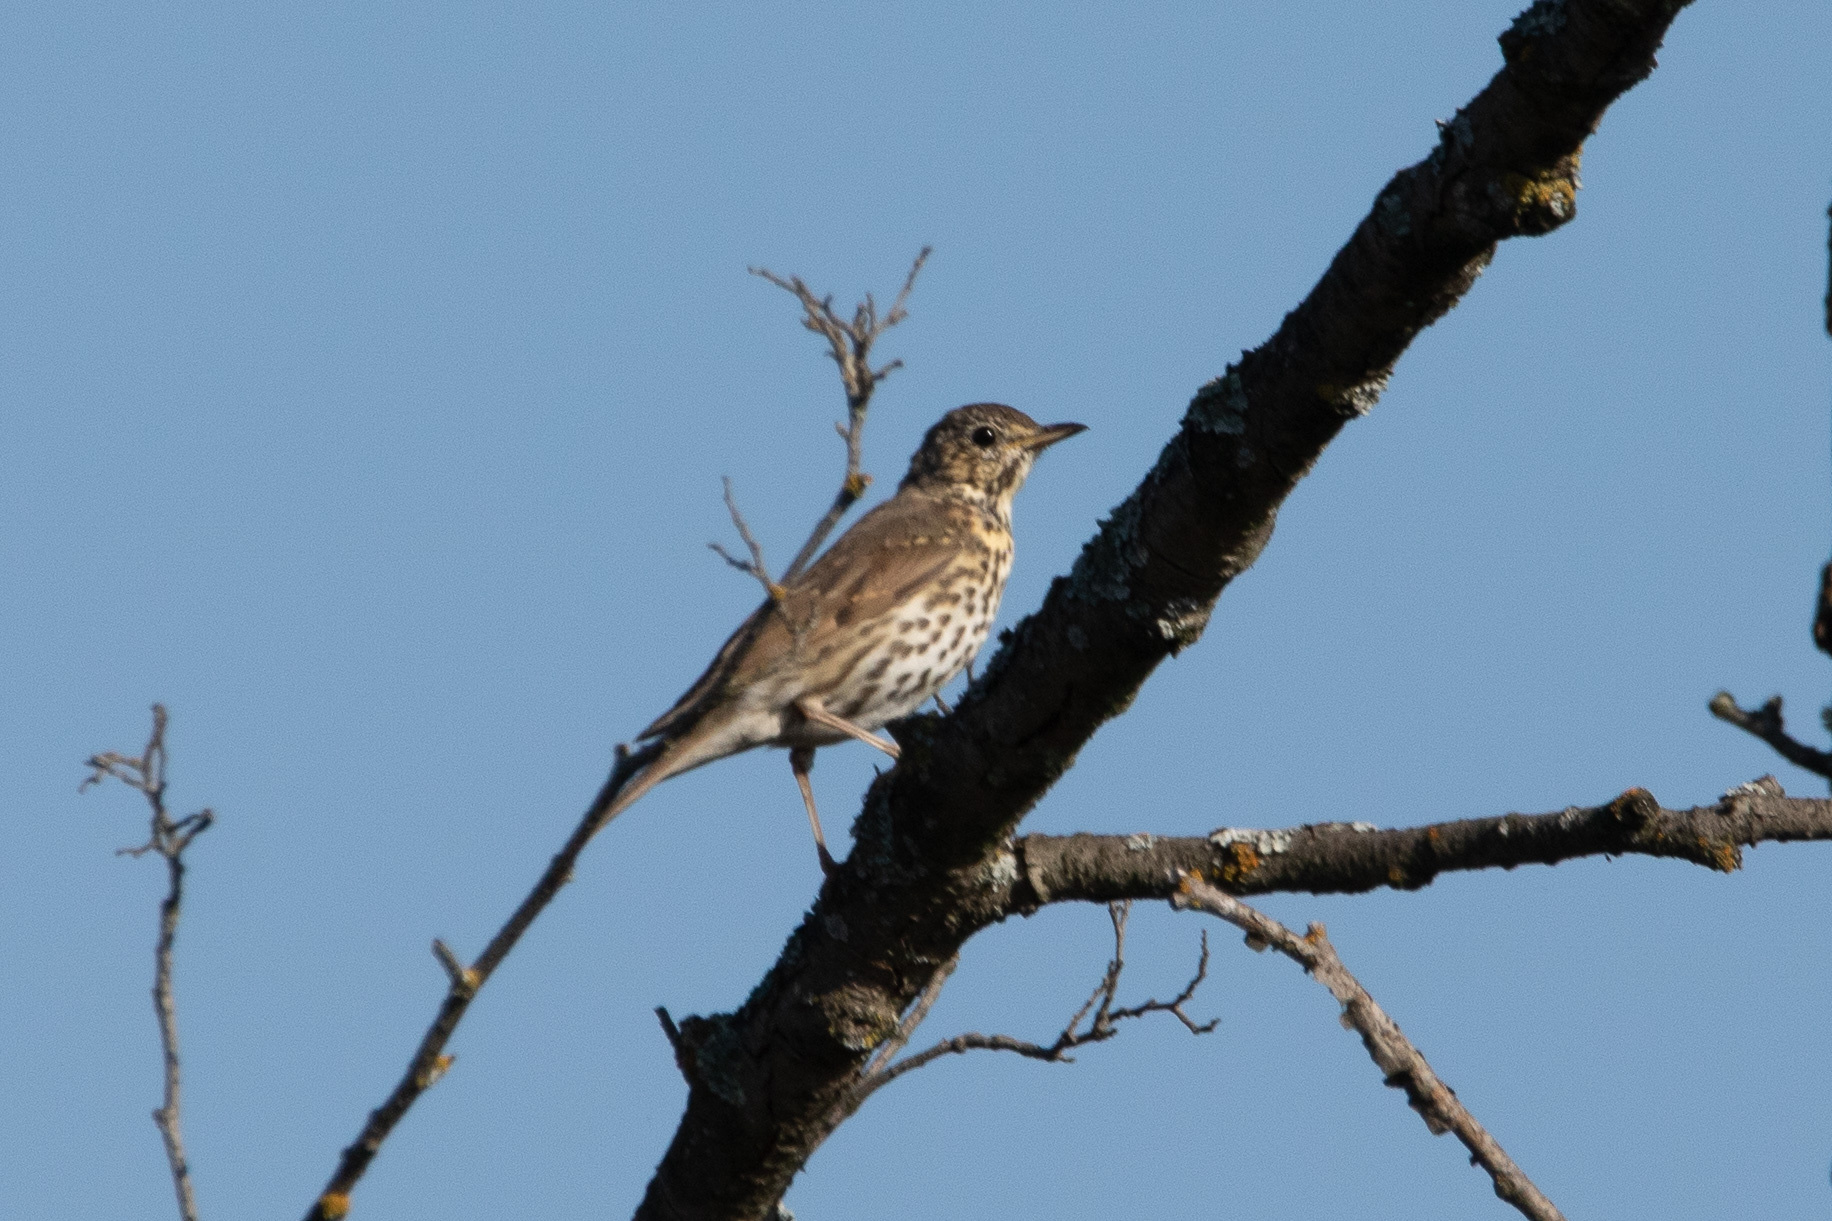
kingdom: Animalia
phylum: Chordata
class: Aves
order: Passeriformes
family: Turdidae
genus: Turdus
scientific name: Turdus philomelos
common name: Song thrush
